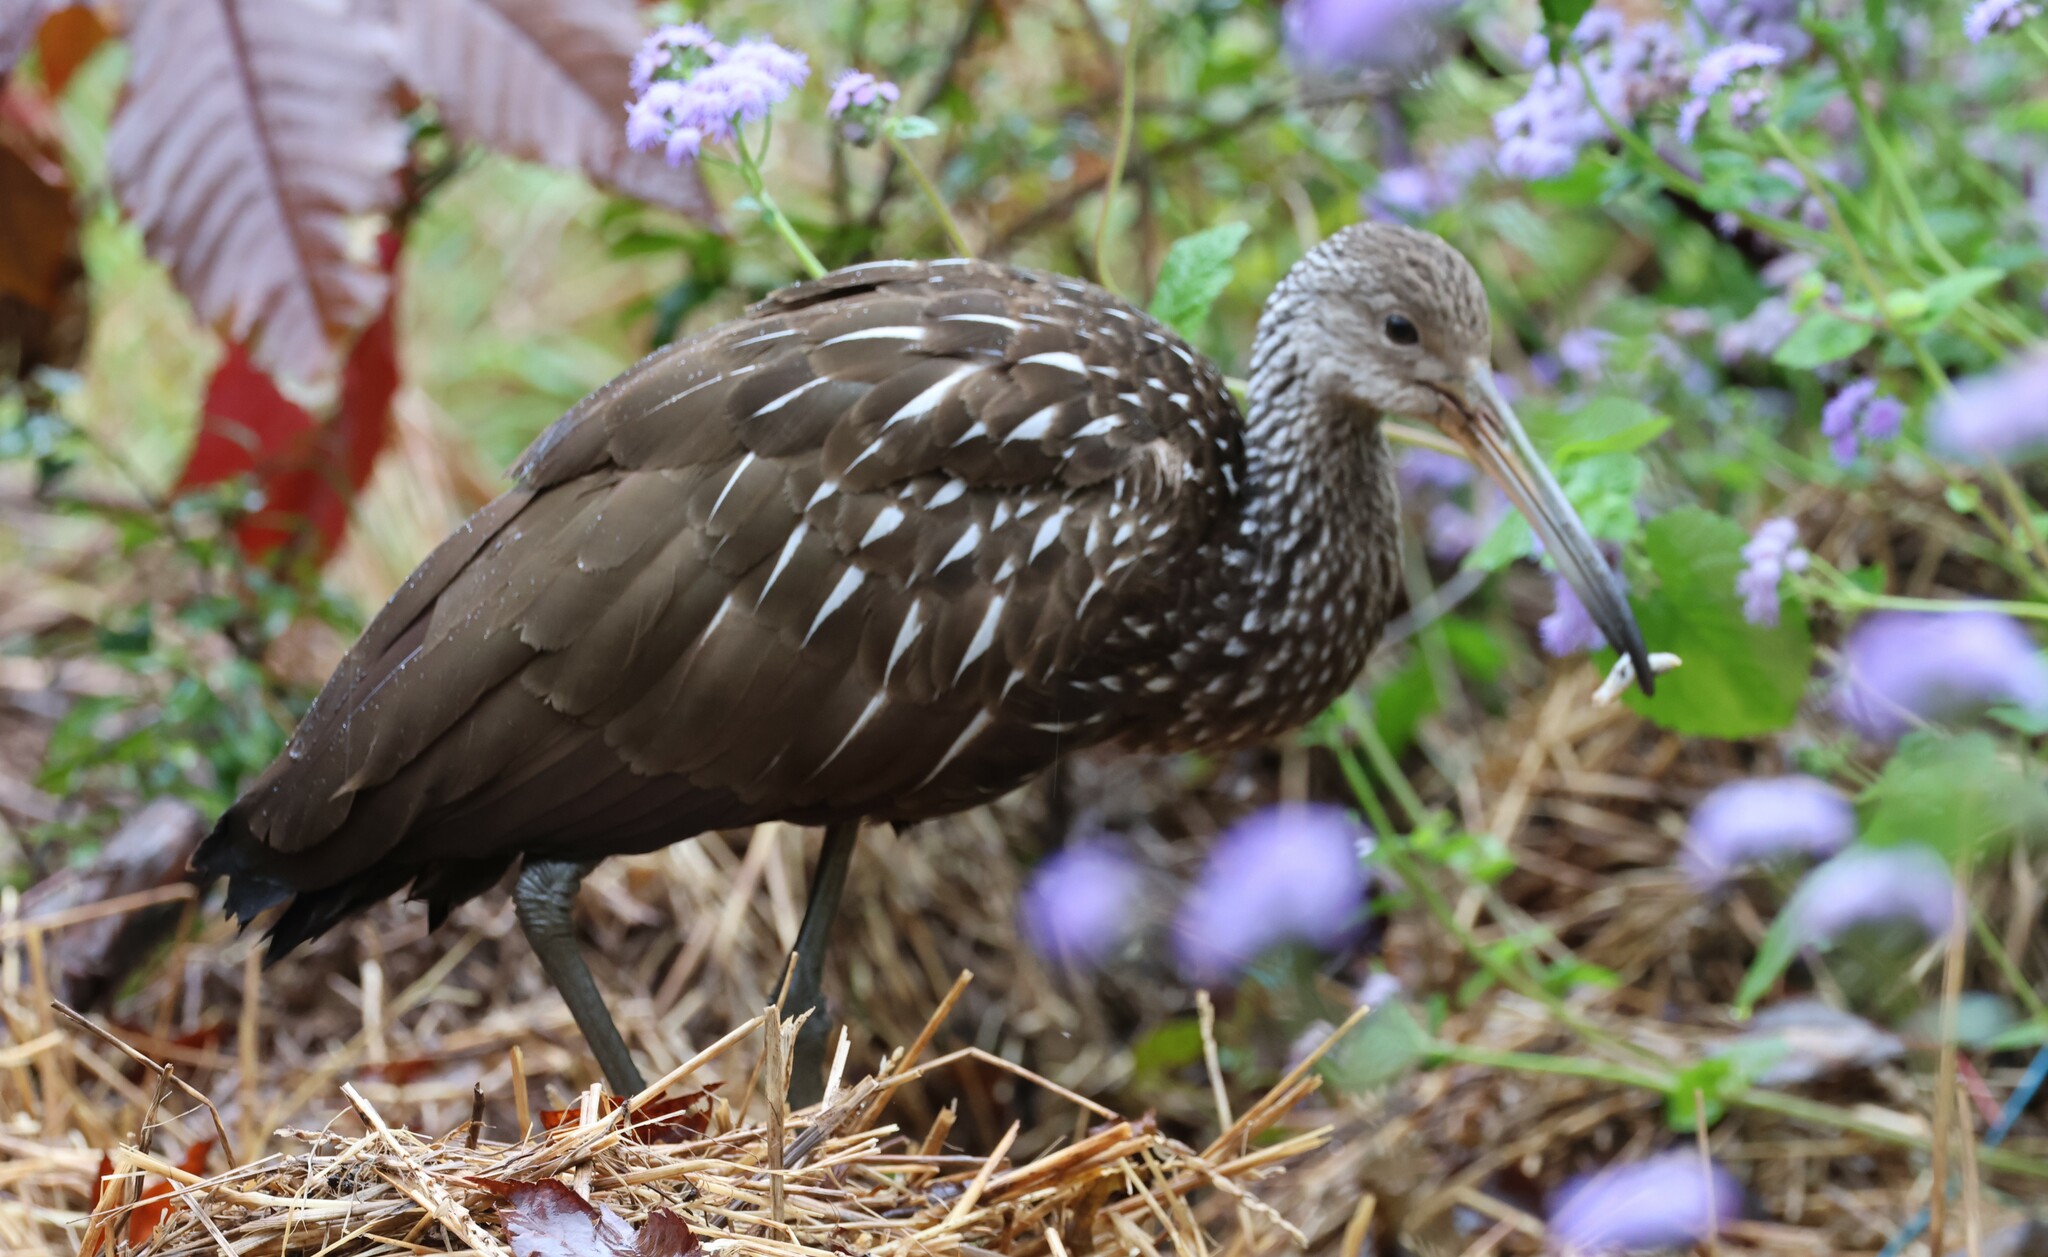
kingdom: Animalia
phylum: Chordata
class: Aves
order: Gruiformes
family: Aramidae
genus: Aramus
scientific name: Aramus guarauna
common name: Limpkin
